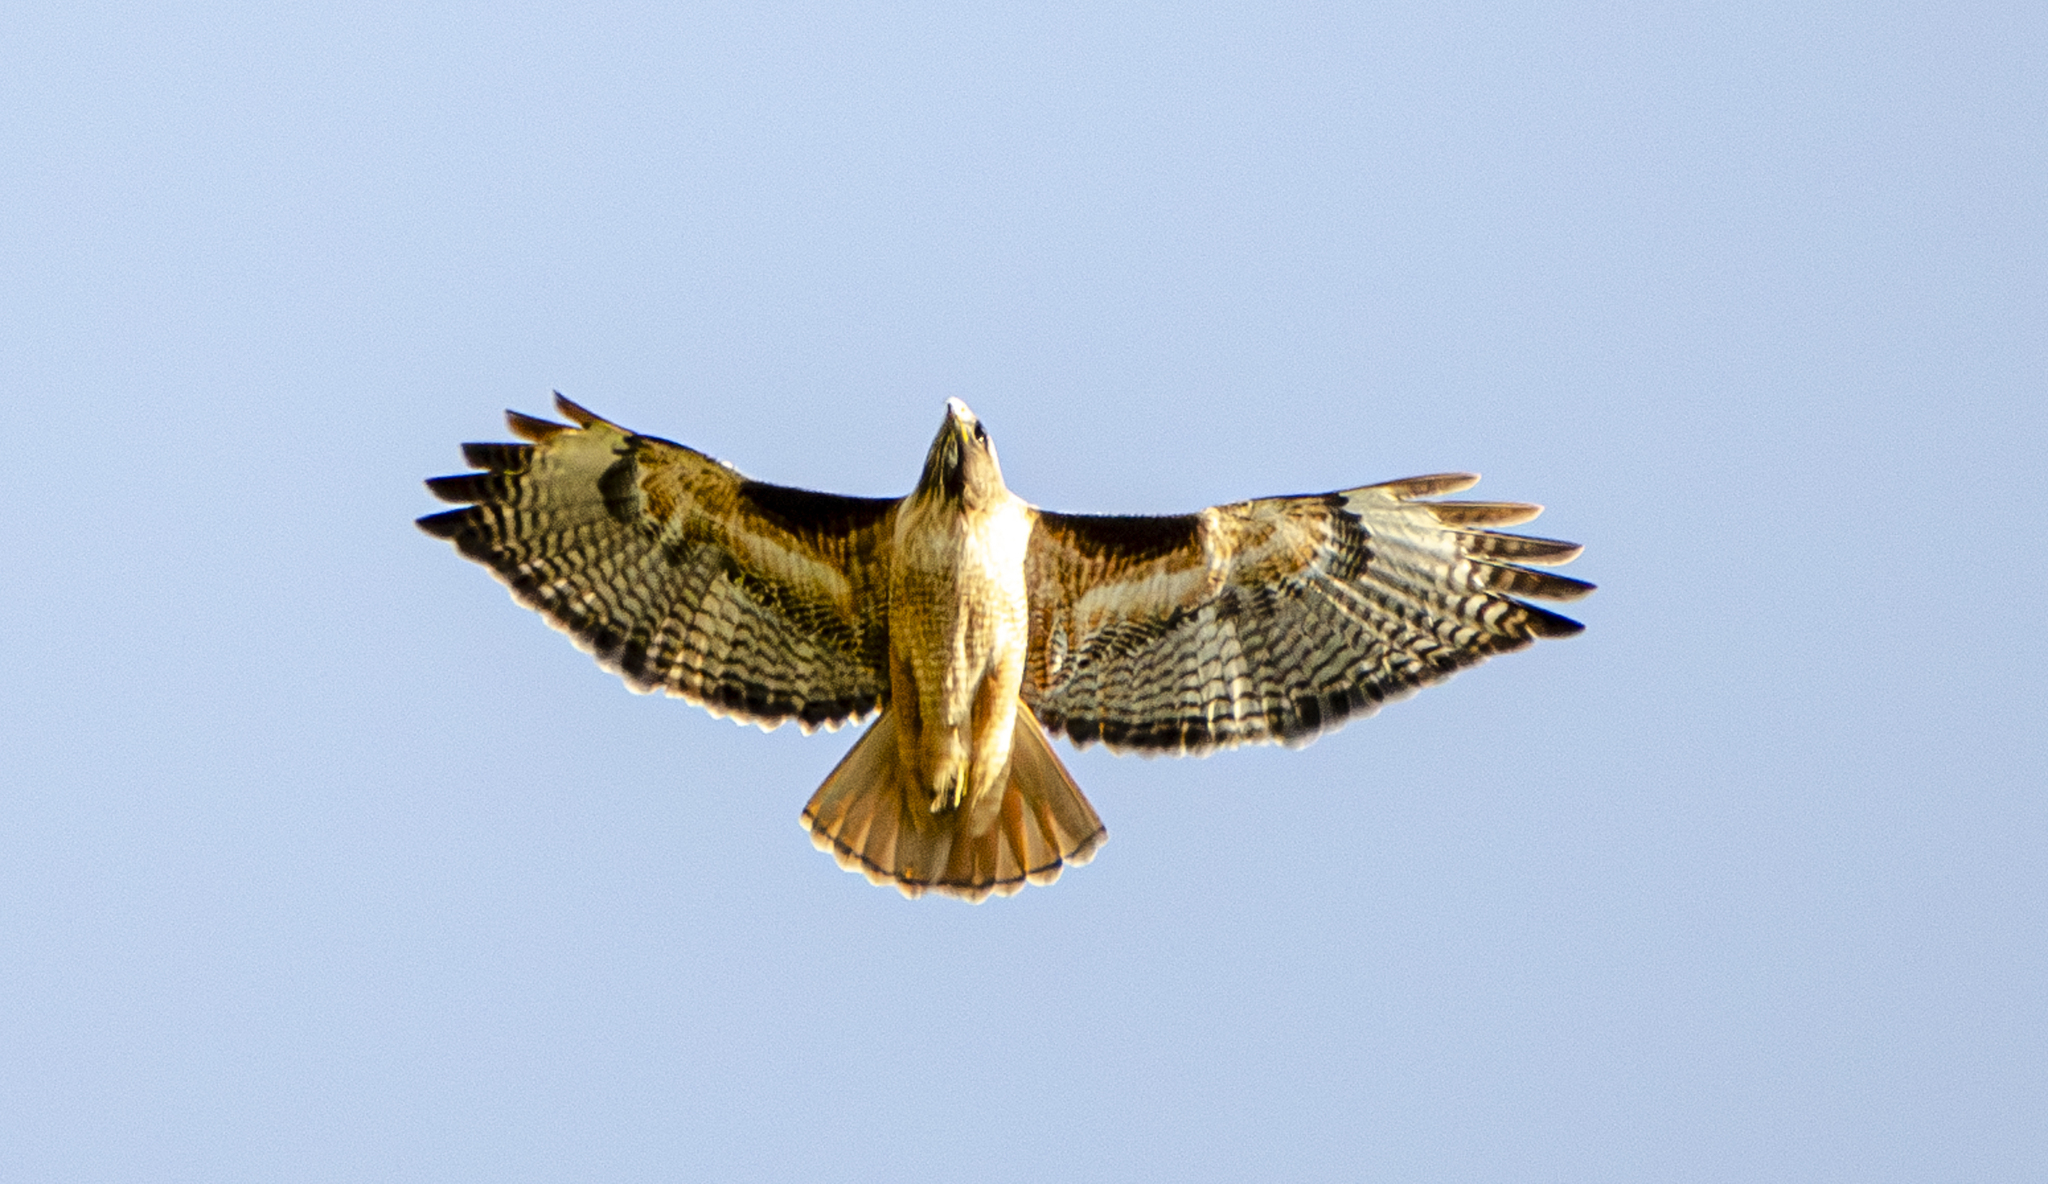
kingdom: Animalia
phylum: Chordata
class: Aves
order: Accipitriformes
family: Accipitridae
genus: Buteo
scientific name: Buteo jamaicensis
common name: Red-tailed hawk
